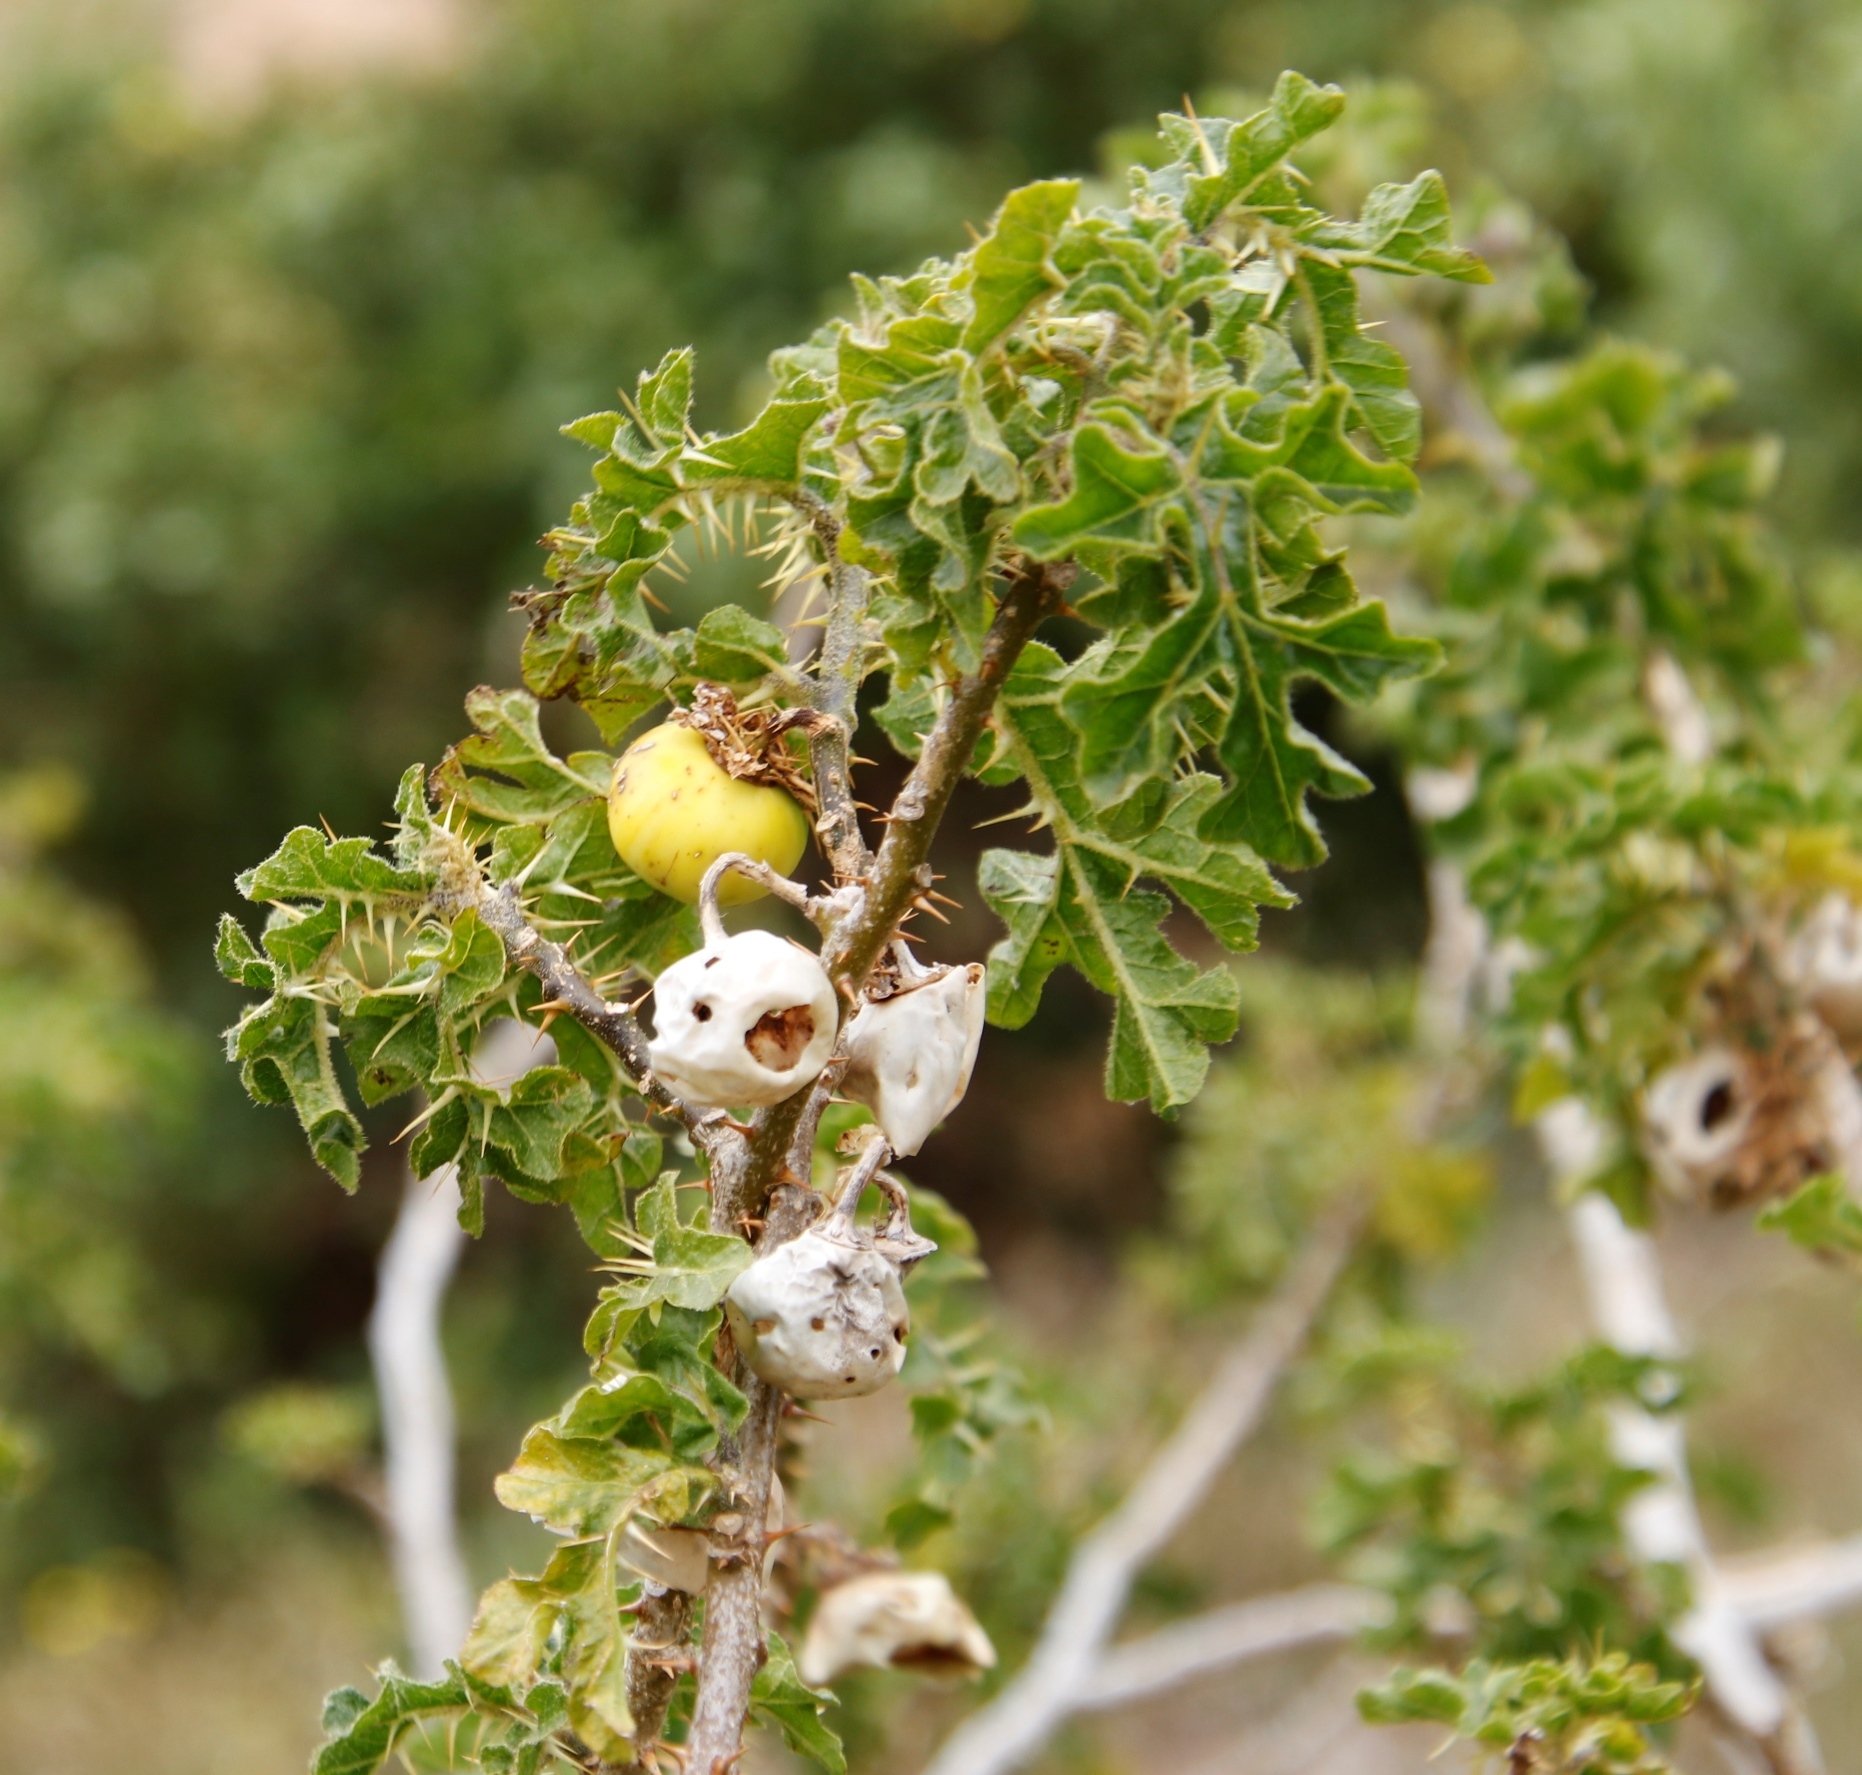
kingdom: Plantae
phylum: Tracheophyta
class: Magnoliopsida
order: Solanales
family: Solanaceae
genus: Solanum
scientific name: Solanum linnaeanum
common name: Nightshade
